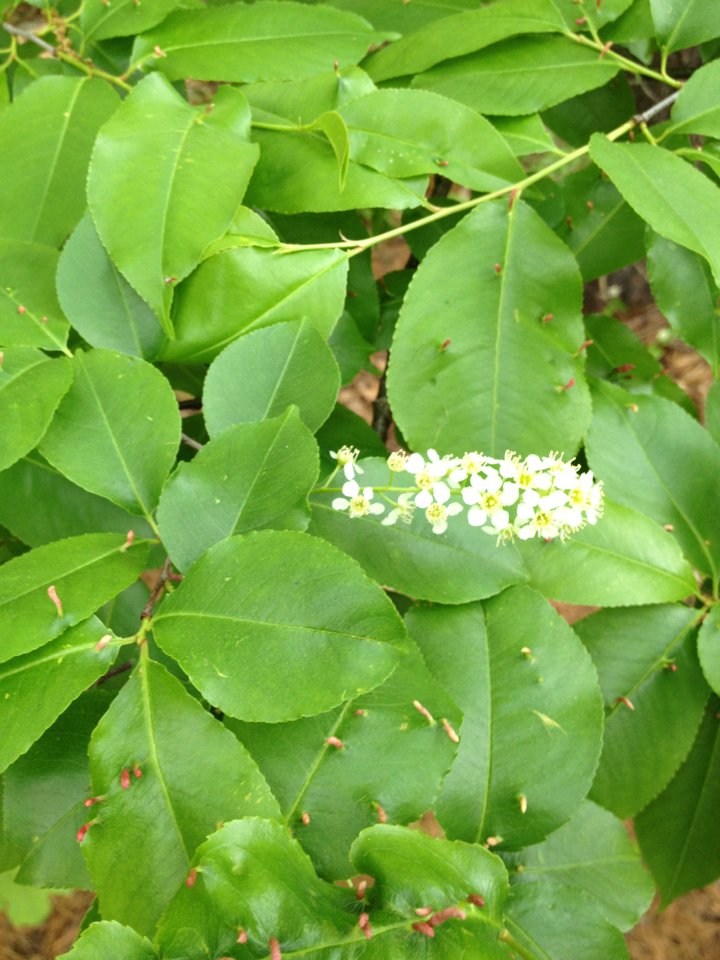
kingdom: Plantae
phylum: Tracheophyta
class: Magnoliopsida
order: Rosales
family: Rosaceae
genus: Prunus
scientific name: Prunus serotina
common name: Black cherry
